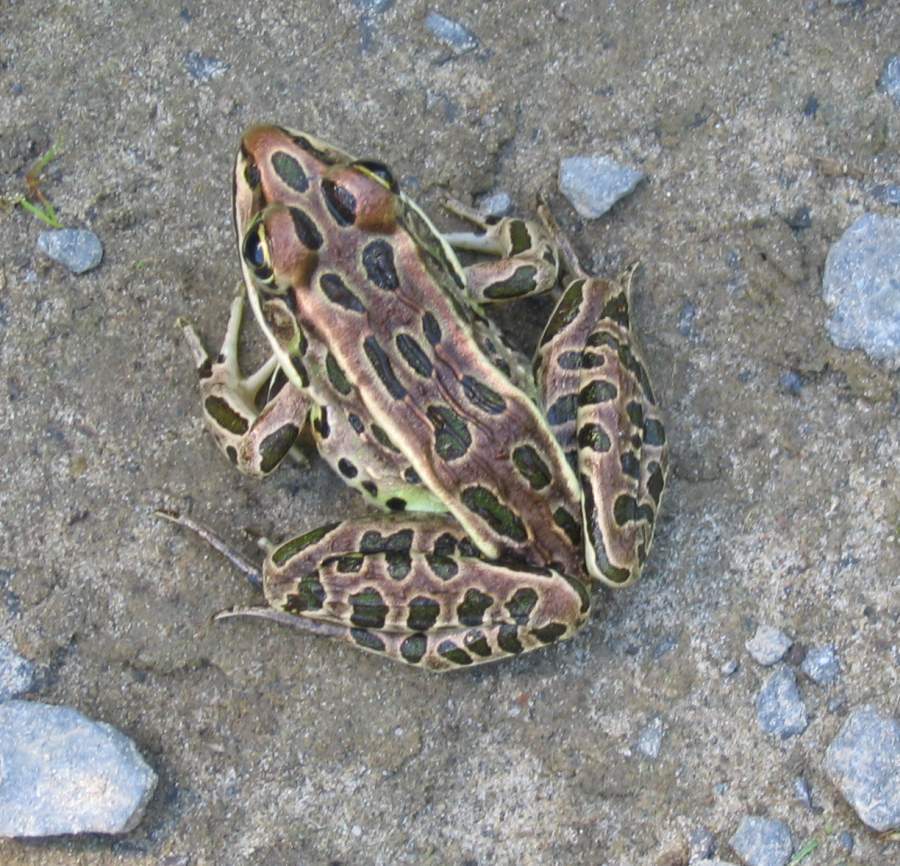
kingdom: Animalia
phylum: Chordata
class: Amphibia
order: Anura
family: Ranidae
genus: Lithobates
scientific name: Lithobates pipiens
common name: Northern leopard frog
